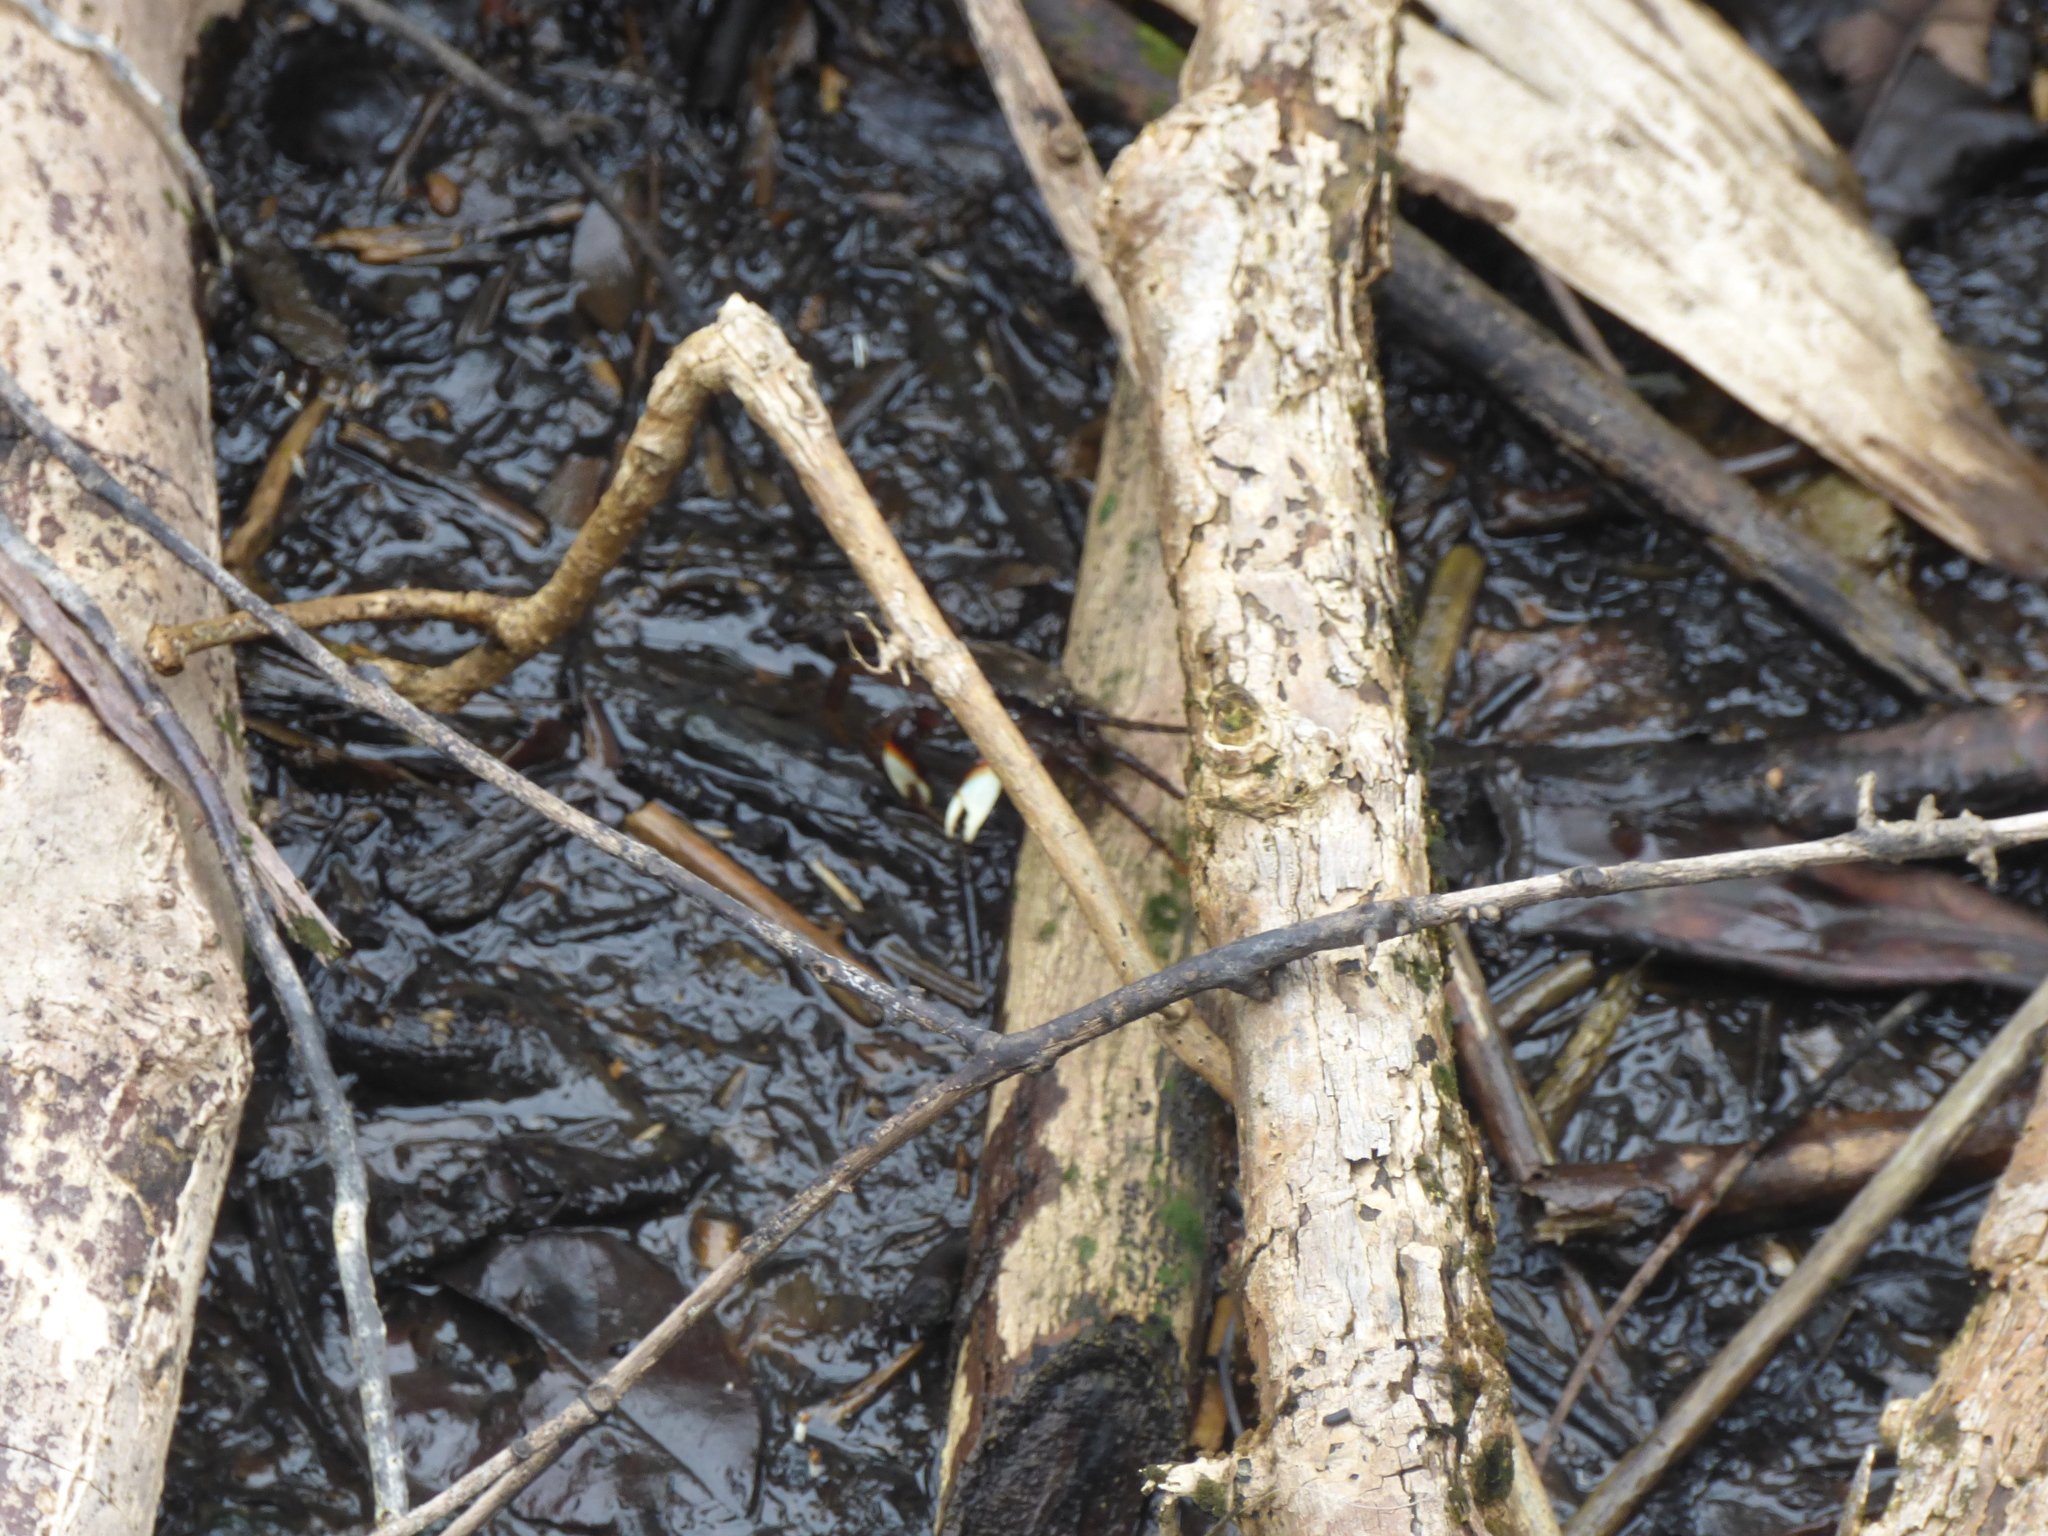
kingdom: Animalia
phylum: Arthropoda
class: Malacostraca
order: Decapoda
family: Grapsidae
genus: Goniopsis
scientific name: Goniopsis pulchra
